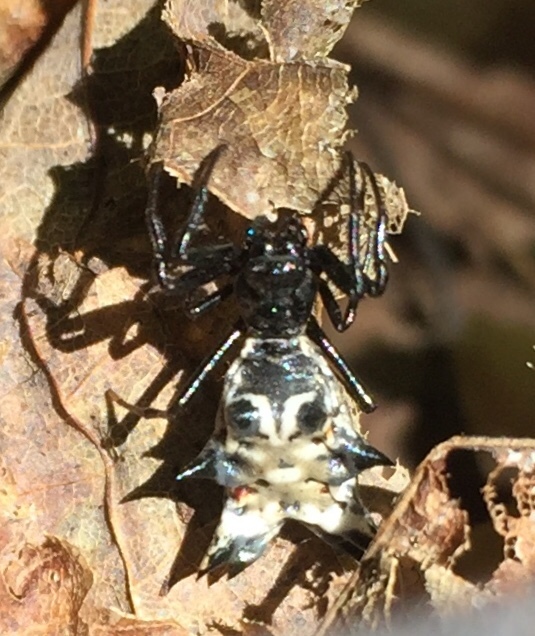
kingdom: Animalia
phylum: Arthropoda
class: Arachnida
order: Araneae
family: Araneidae
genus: Micrathena
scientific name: Micrathena gracilis
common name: Orb weavers
